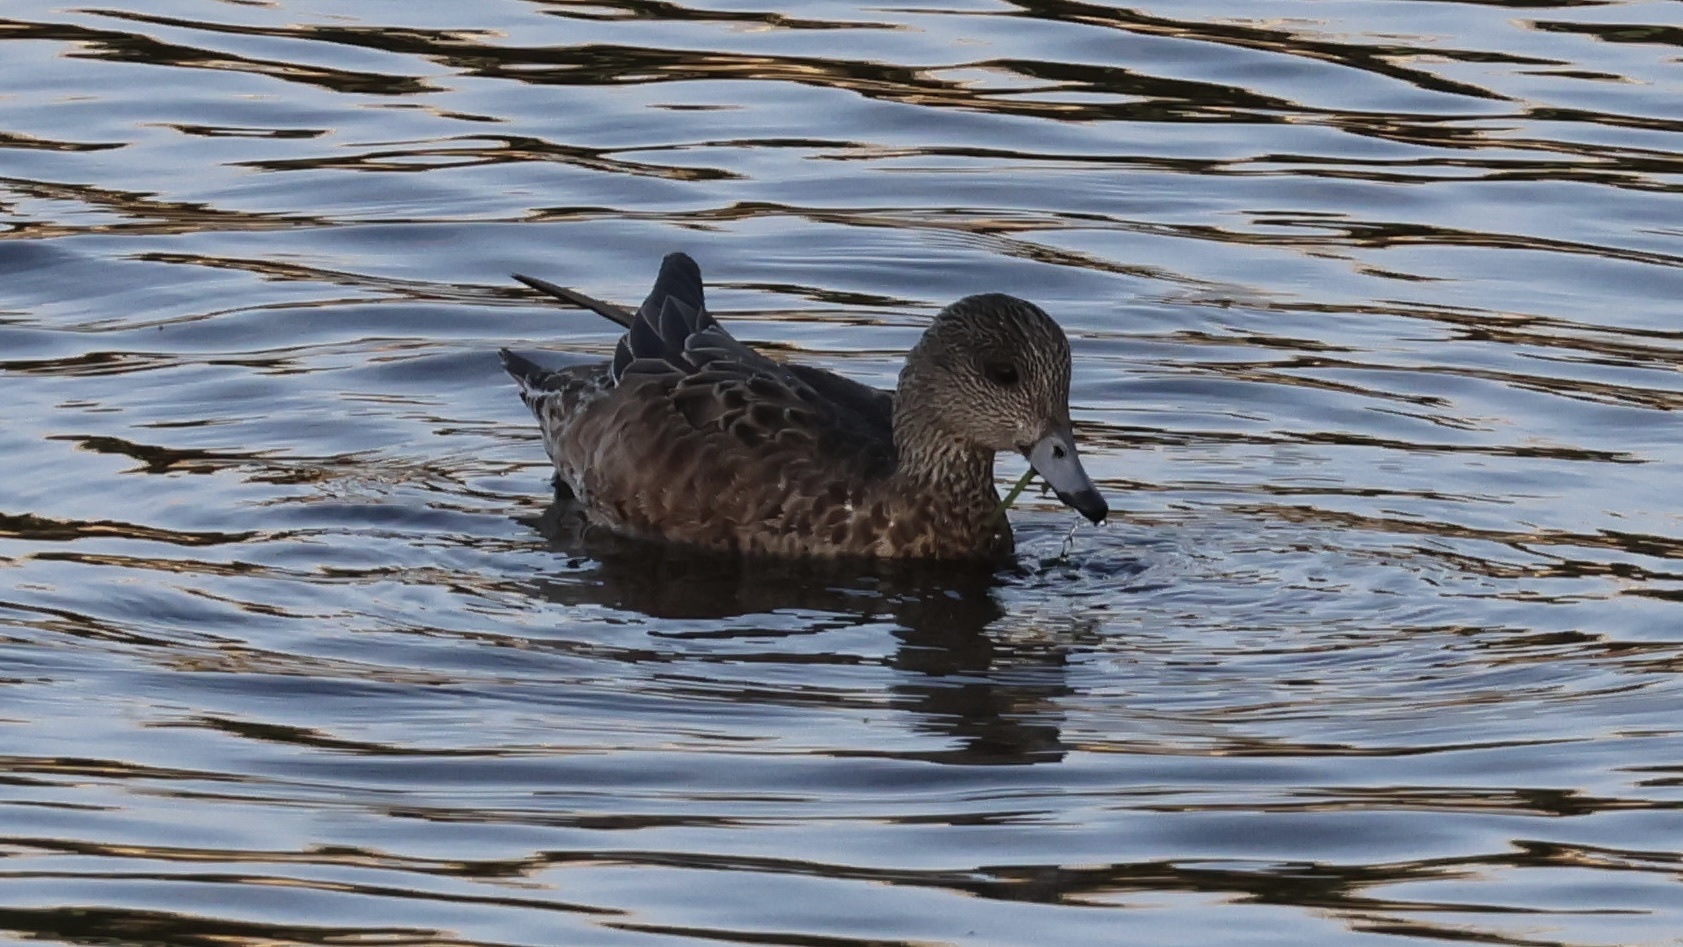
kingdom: Animalia
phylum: Chordata
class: Aves
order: Anseriformes
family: Anatidae
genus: Mareca
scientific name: Mareca americana
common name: American wigeon
